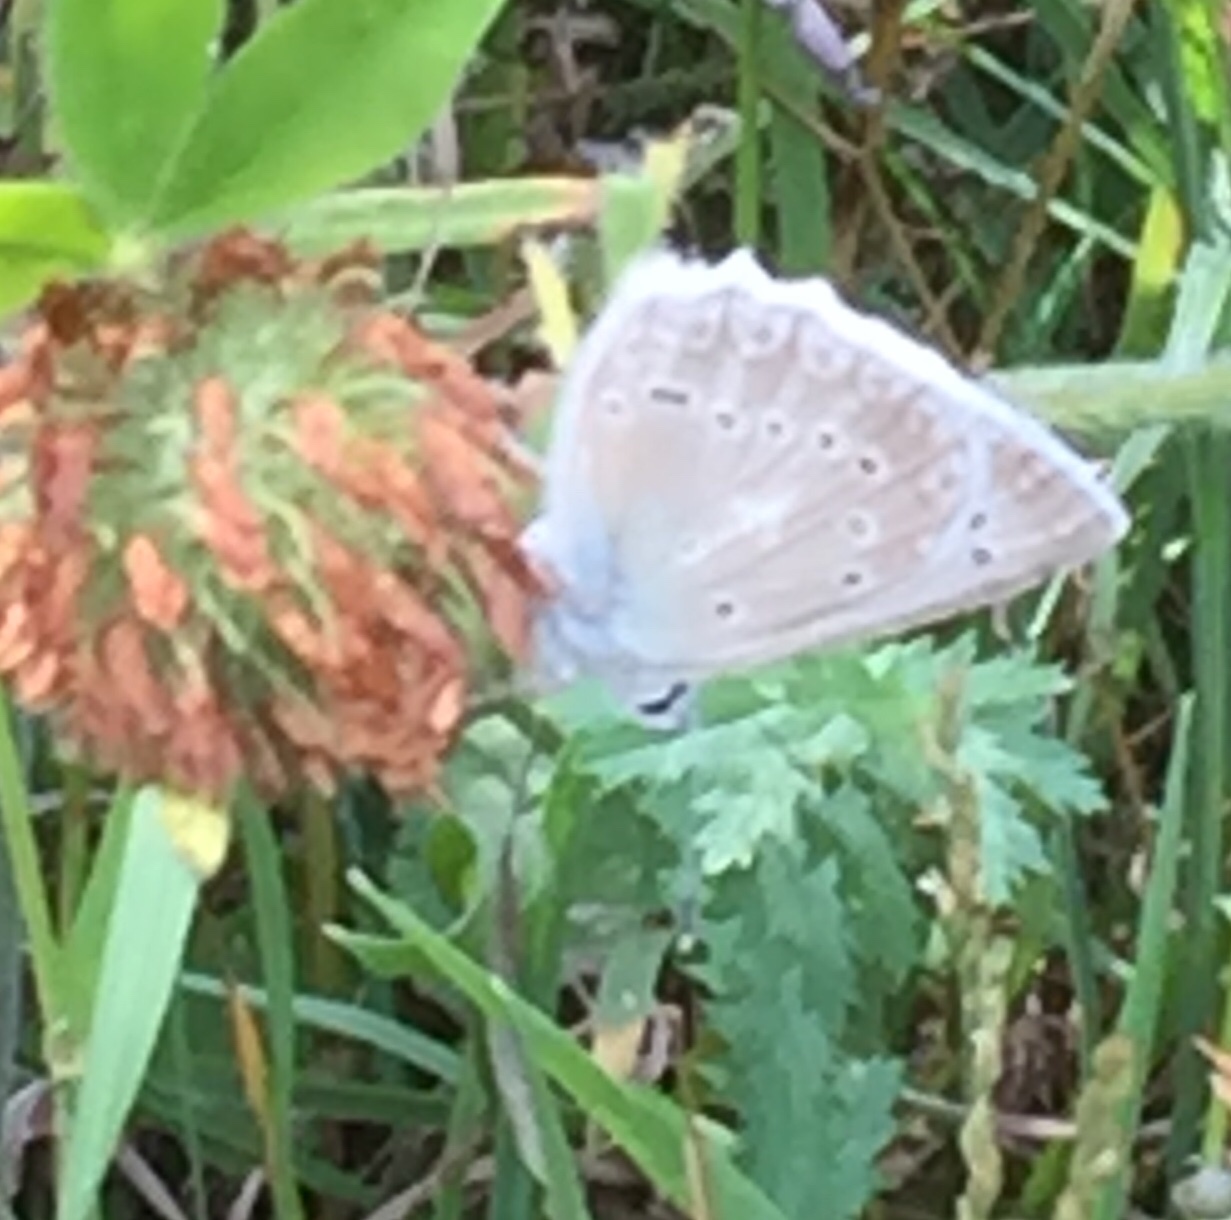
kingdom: Animalia
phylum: Arthropoda
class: Insecta
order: Lepidoptera
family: Lycaenidae
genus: Polyommatus
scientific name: Polyommatus daphnis
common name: Meleager's blue
